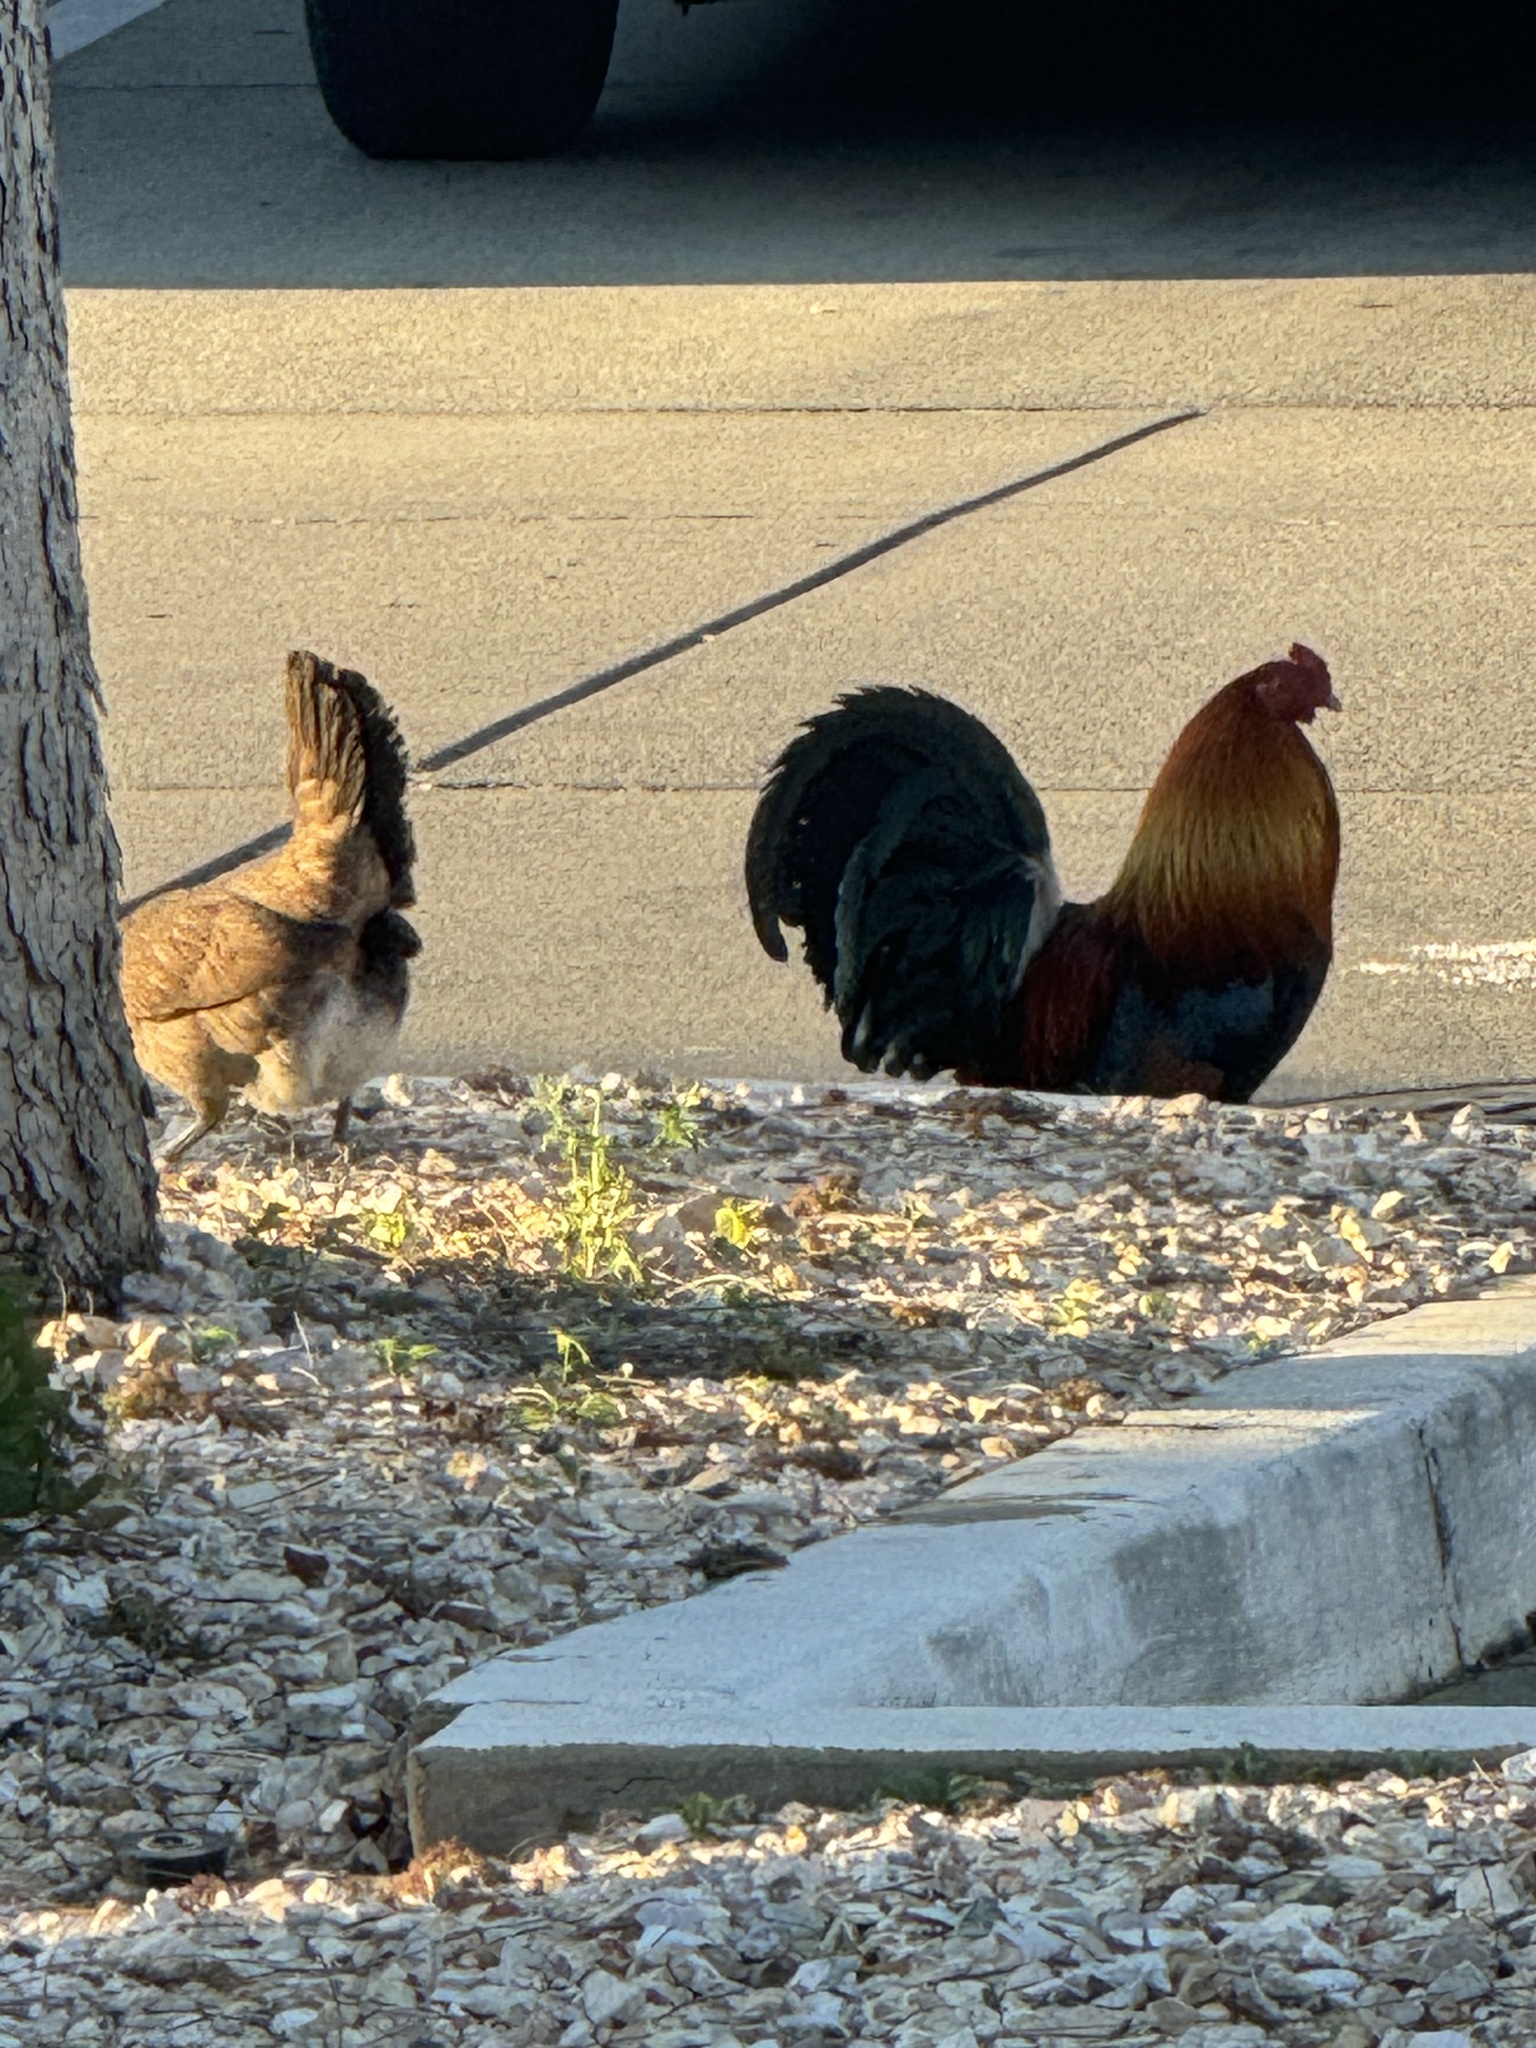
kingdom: Animalia
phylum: Chordata
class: Aves
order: Galliformes
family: Phasianidae
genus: Gallus
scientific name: Gallus gallus
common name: Red junglefowl
